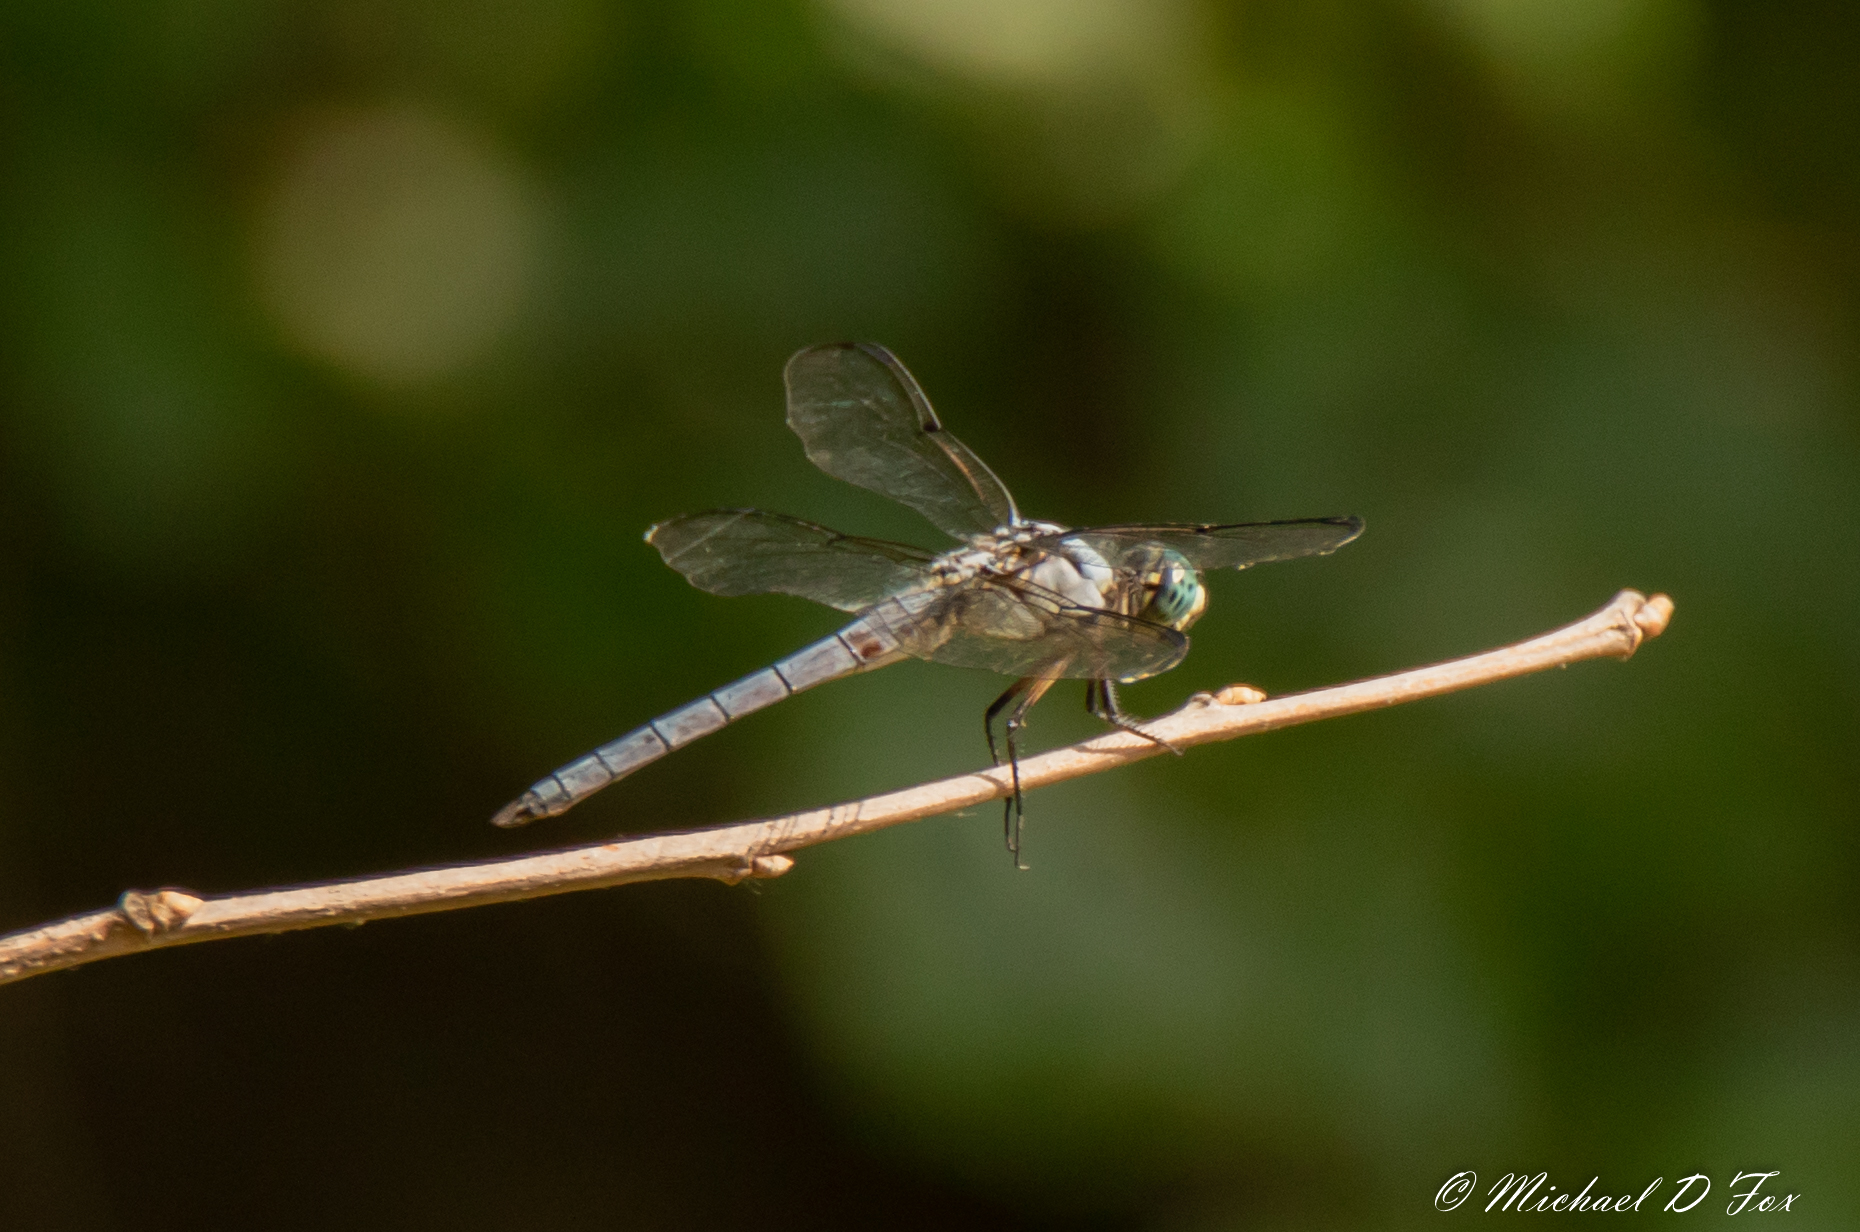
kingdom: Animalia
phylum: Arthropoda
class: Insecta
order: Odonata
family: Libellulidae
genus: Libellula
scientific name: Libellula vibrans
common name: Great blue skimmer
